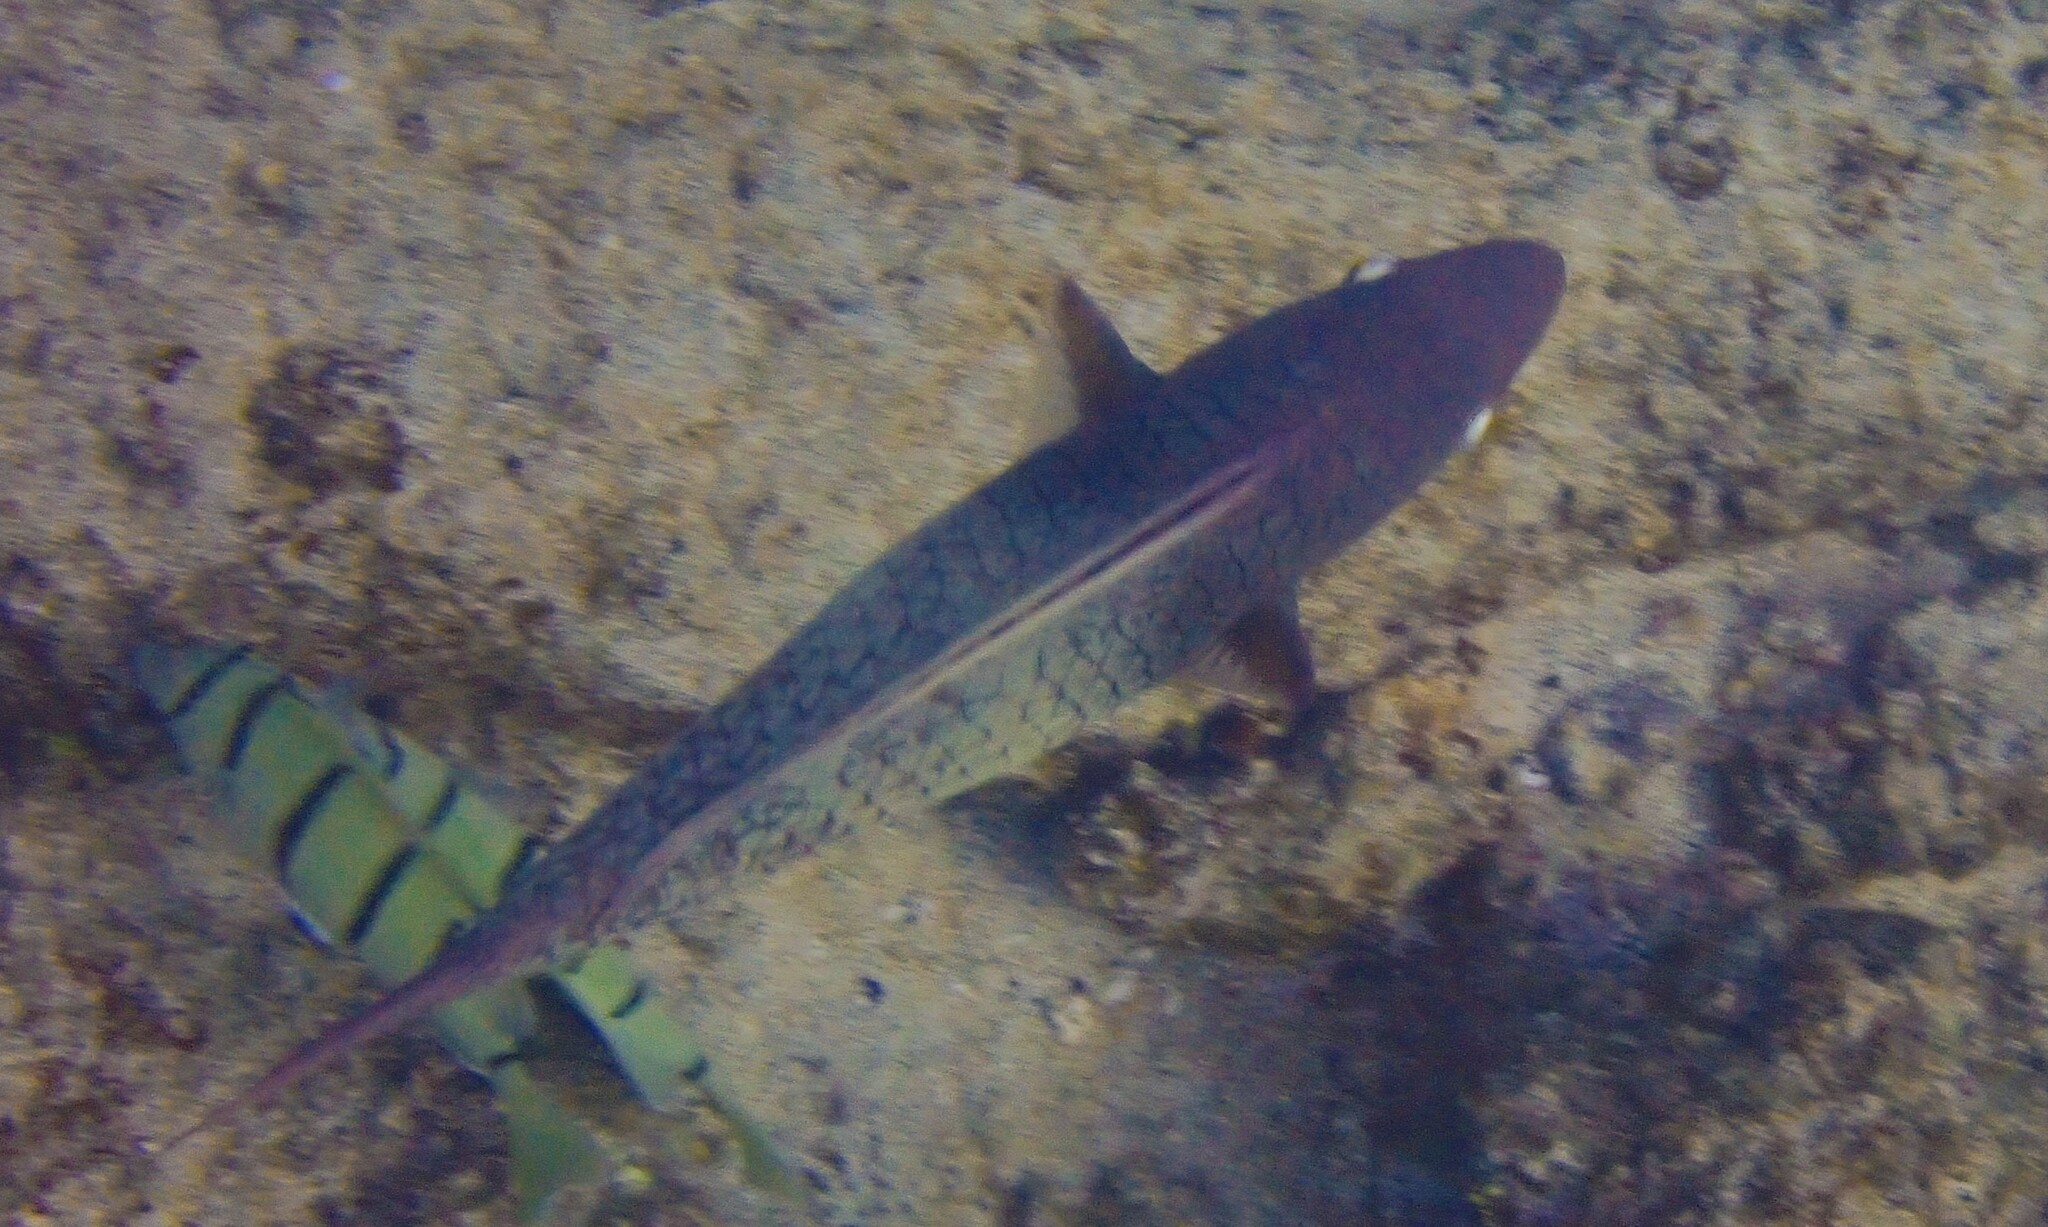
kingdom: Animalia
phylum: Chordata
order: Perciformes
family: Scaridae
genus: Scarus
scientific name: Scarus rubroviolaceus
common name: Ember parrotfish
